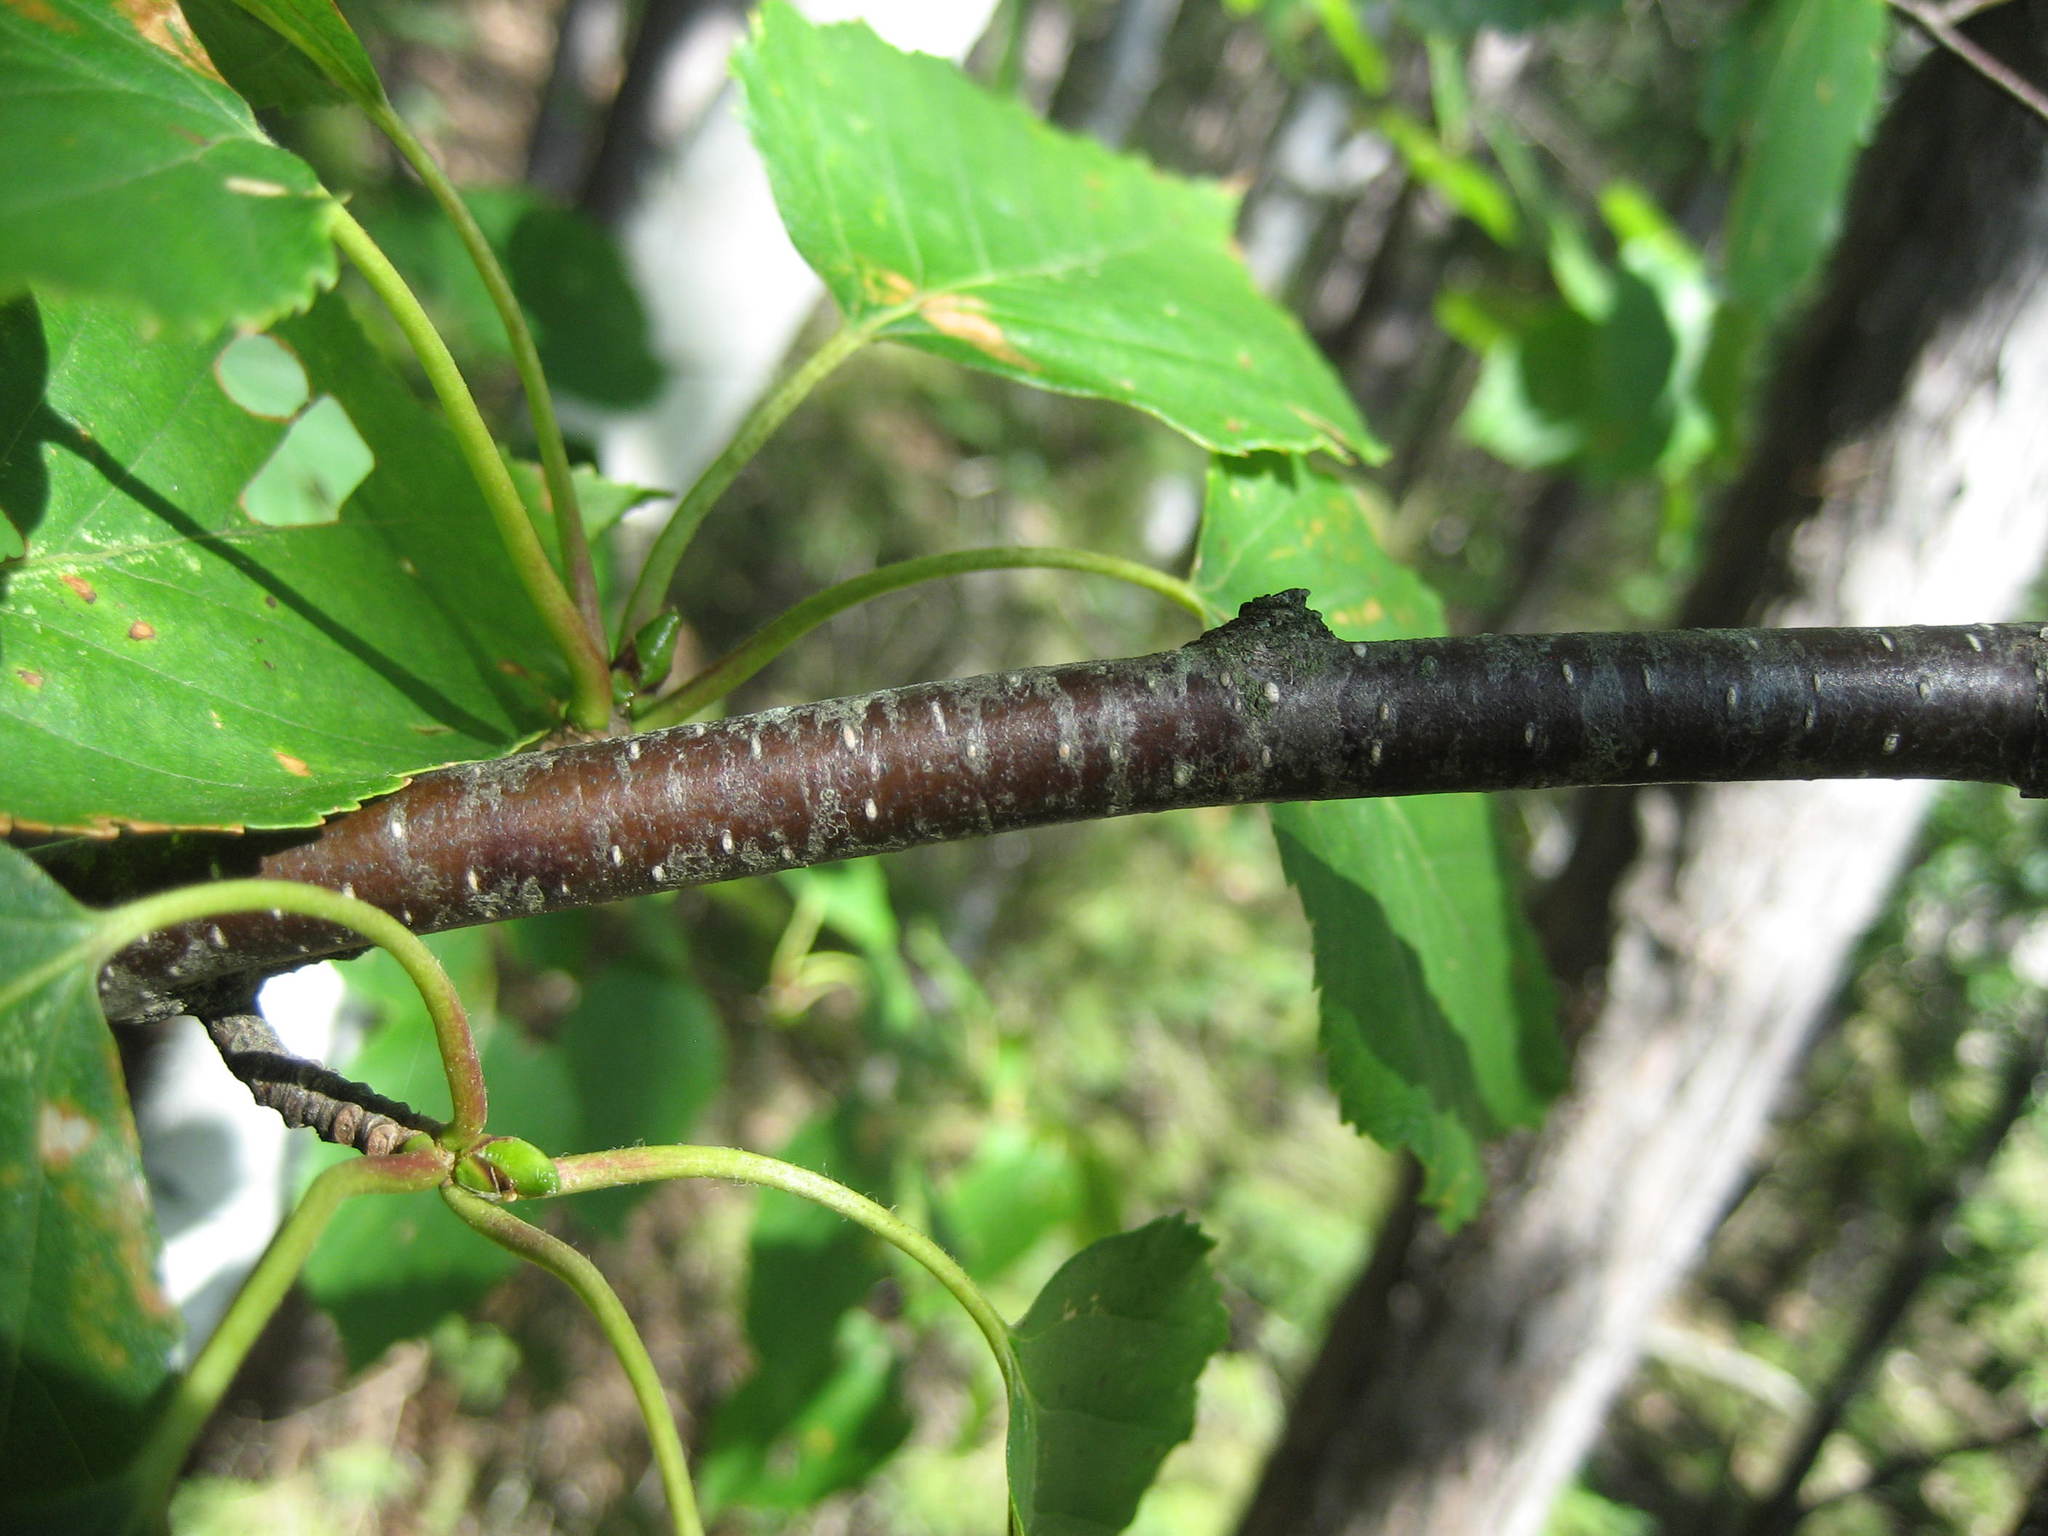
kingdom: Plantae
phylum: Tracheophyta
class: Magnoliopsida
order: Fagales
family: Betulaceae
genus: Betula
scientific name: Betula papyrifera
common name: Paper birch
